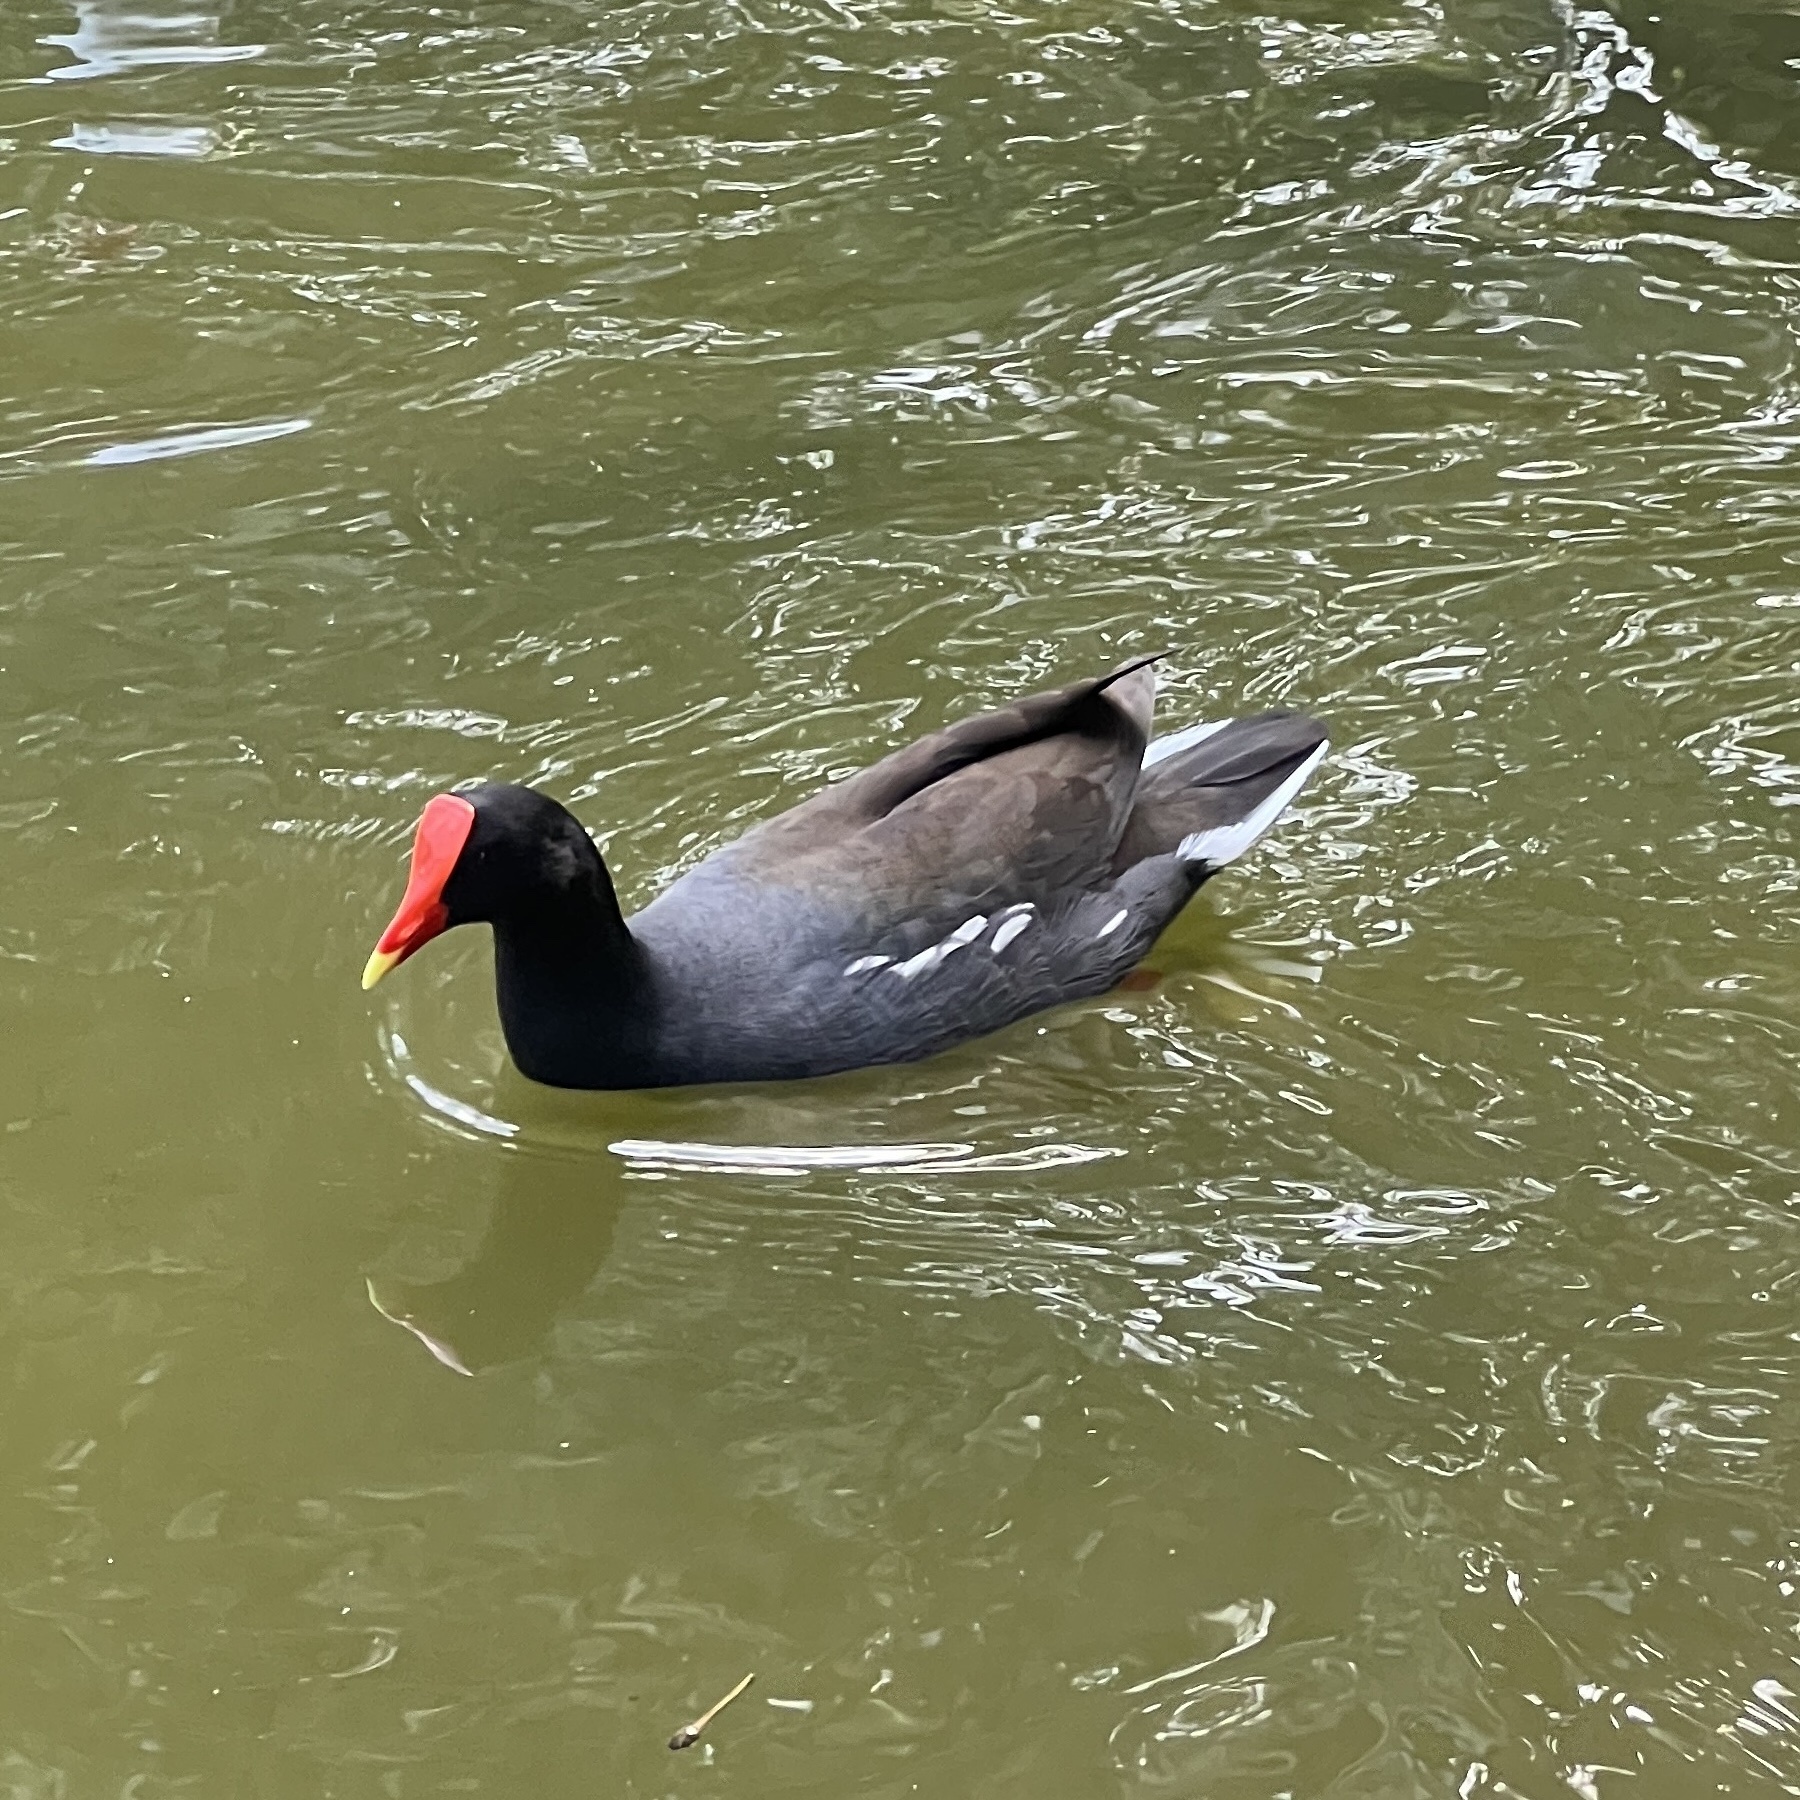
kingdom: Animalia
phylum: Chordata
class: Aves
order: Gruiformes
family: Rallidae
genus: Gallinula
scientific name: Gallinula chloropus
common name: Common moorhen
